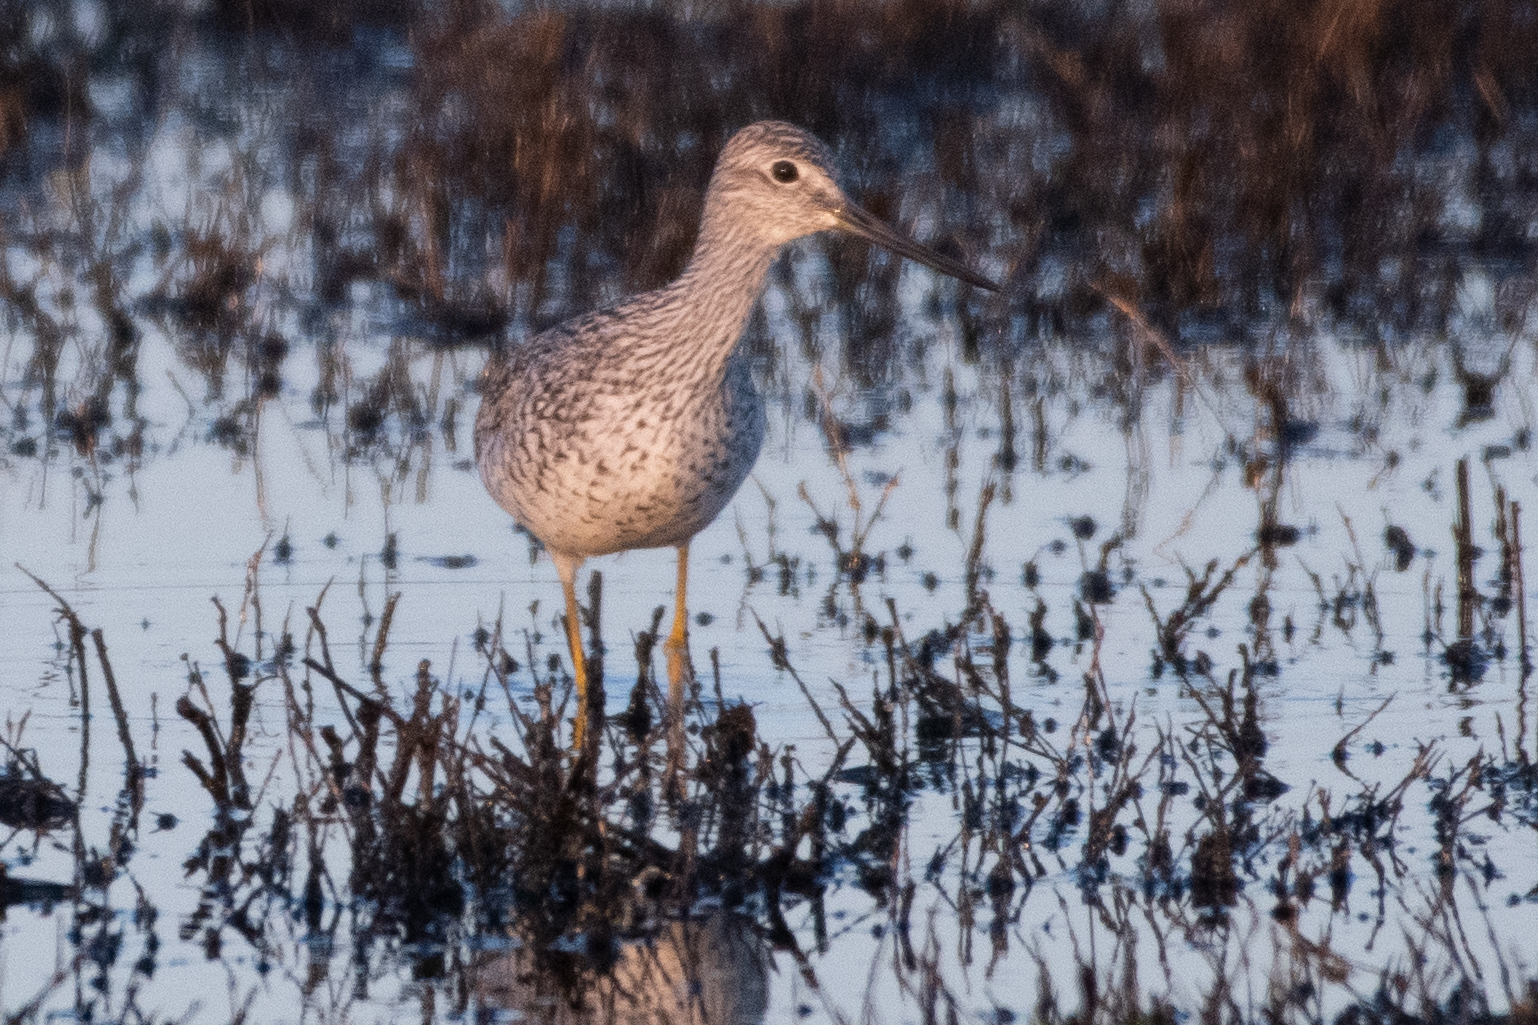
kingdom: Animalia
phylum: Chordata
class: Aves
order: Charadriiformes
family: Scolopacidae
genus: Tringa
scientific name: Tringa melanoleuca
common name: Greater yellowlegs
